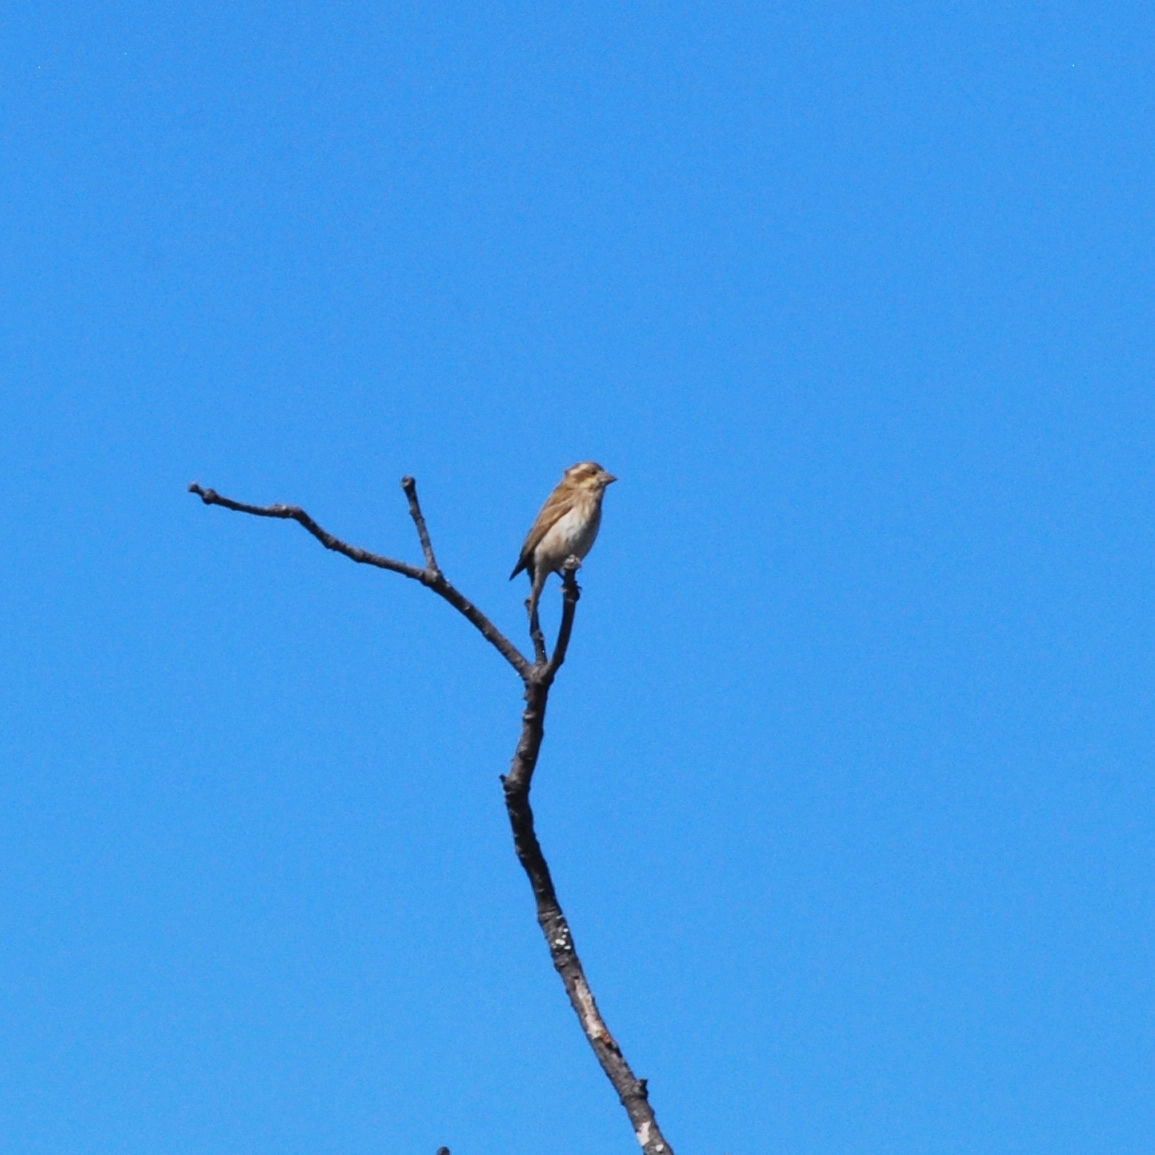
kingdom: Animalia
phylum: Chordata
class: Aves
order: Passeriformes
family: Fringillidae
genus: Haemorhous
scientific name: Haemorhous purpureus
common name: Purple finch
